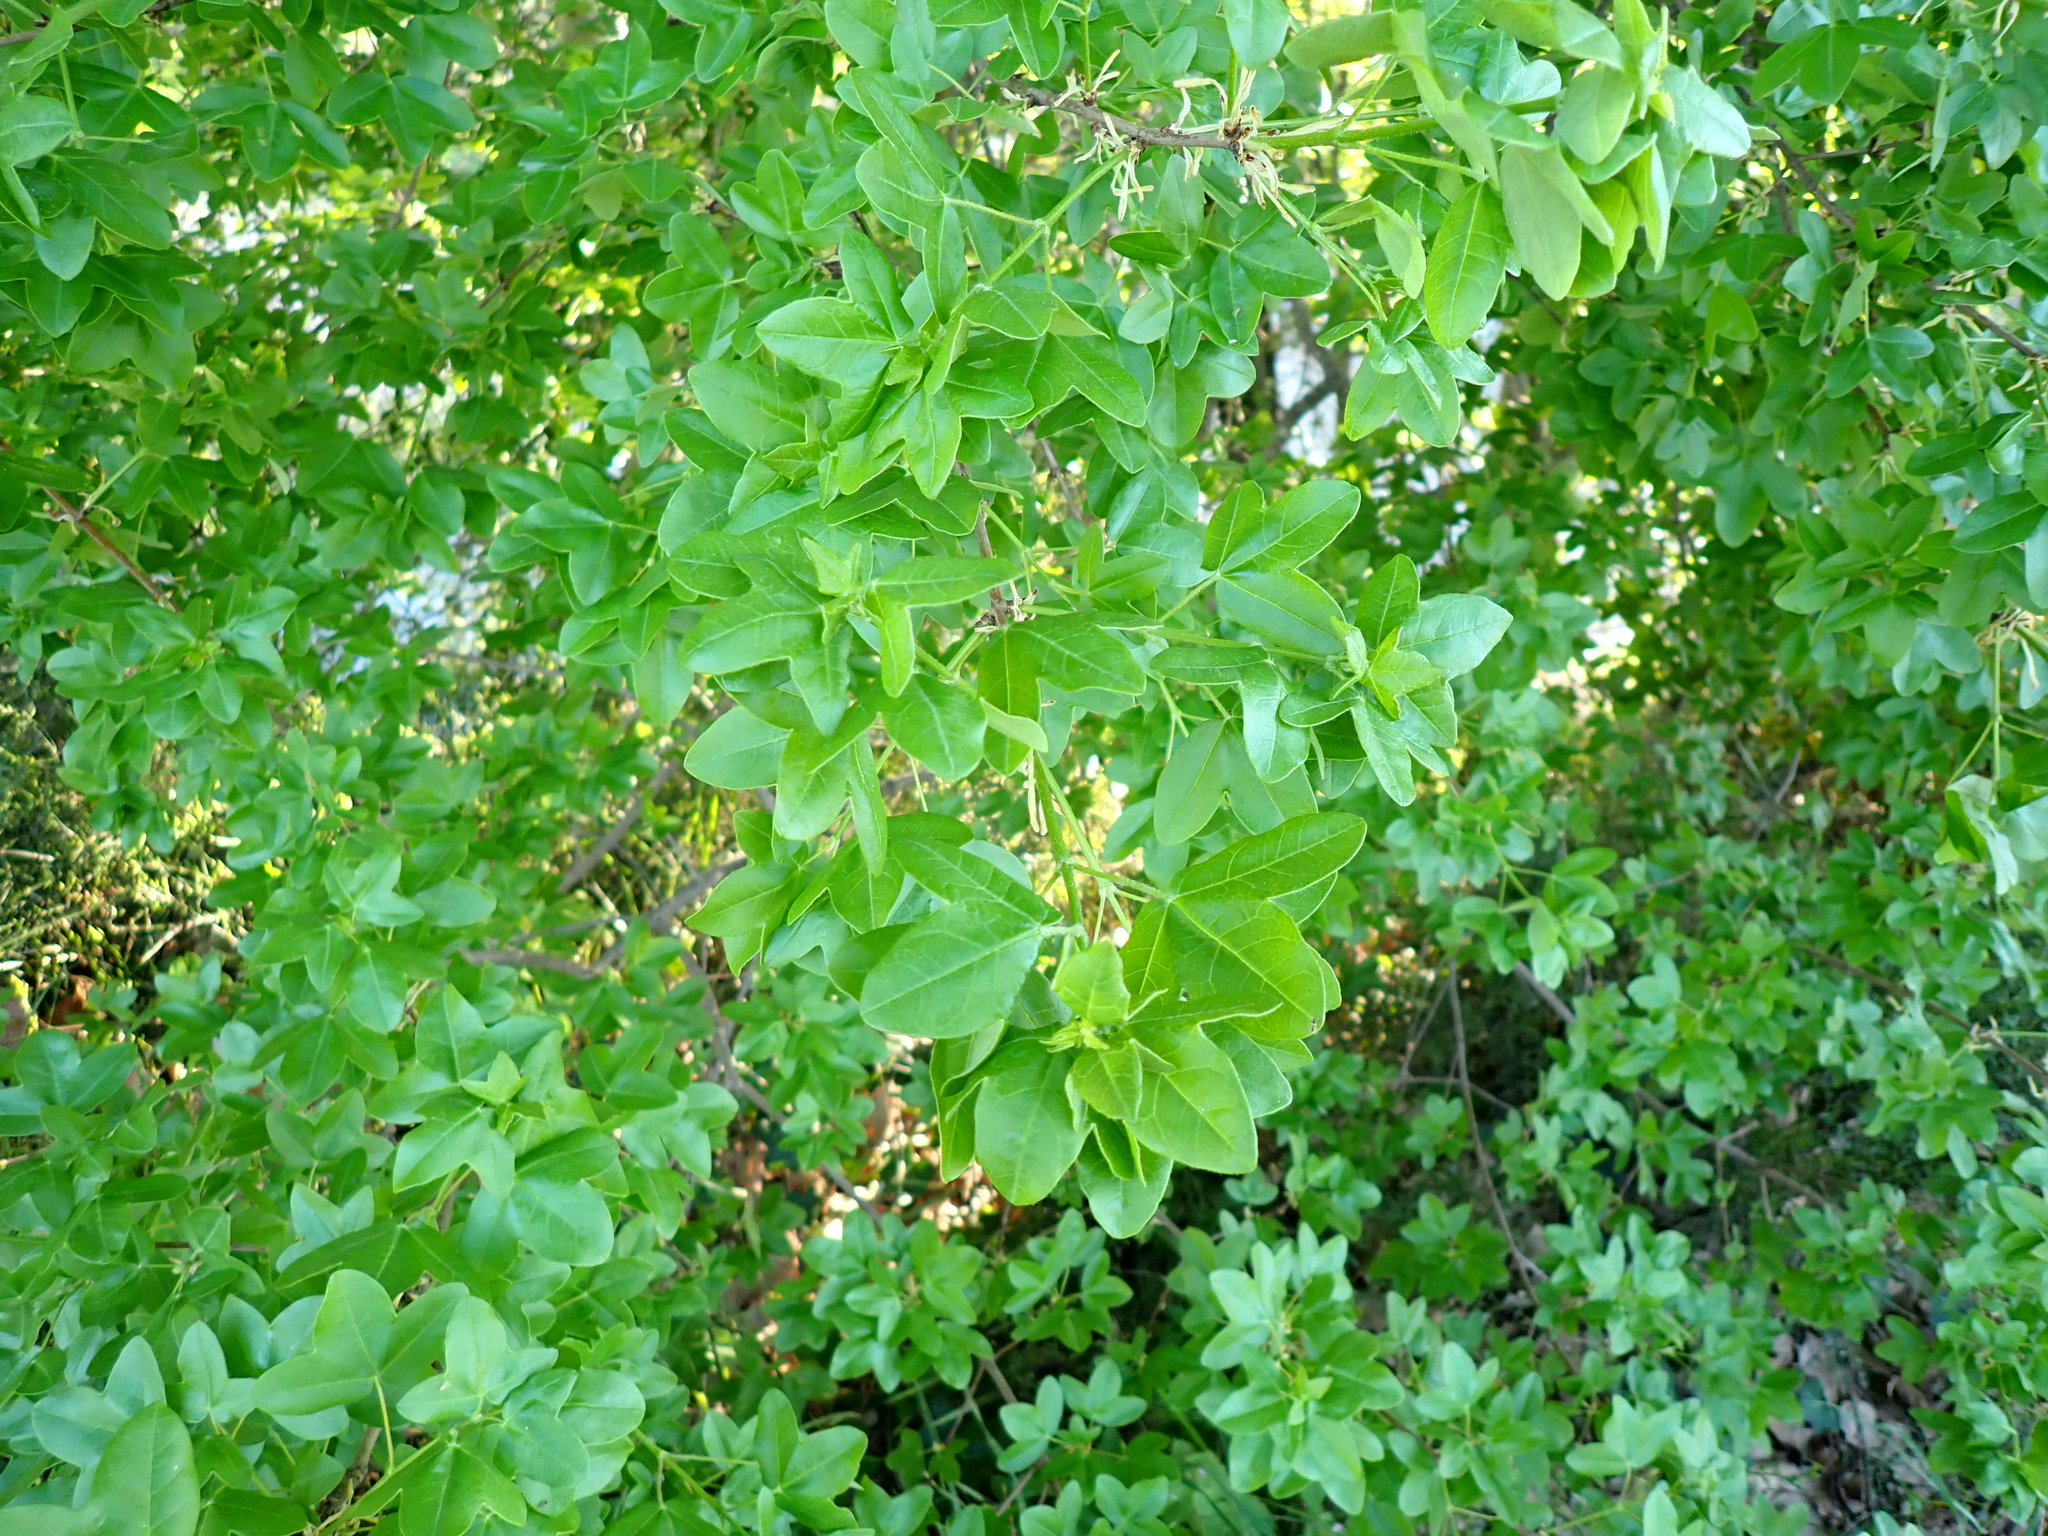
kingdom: Plantae
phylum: Tracheophyta
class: Magnoliopsida
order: Sapindales
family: Sapindaceae
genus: Acer
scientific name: Acer monspessulanum
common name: Montpellier maple
